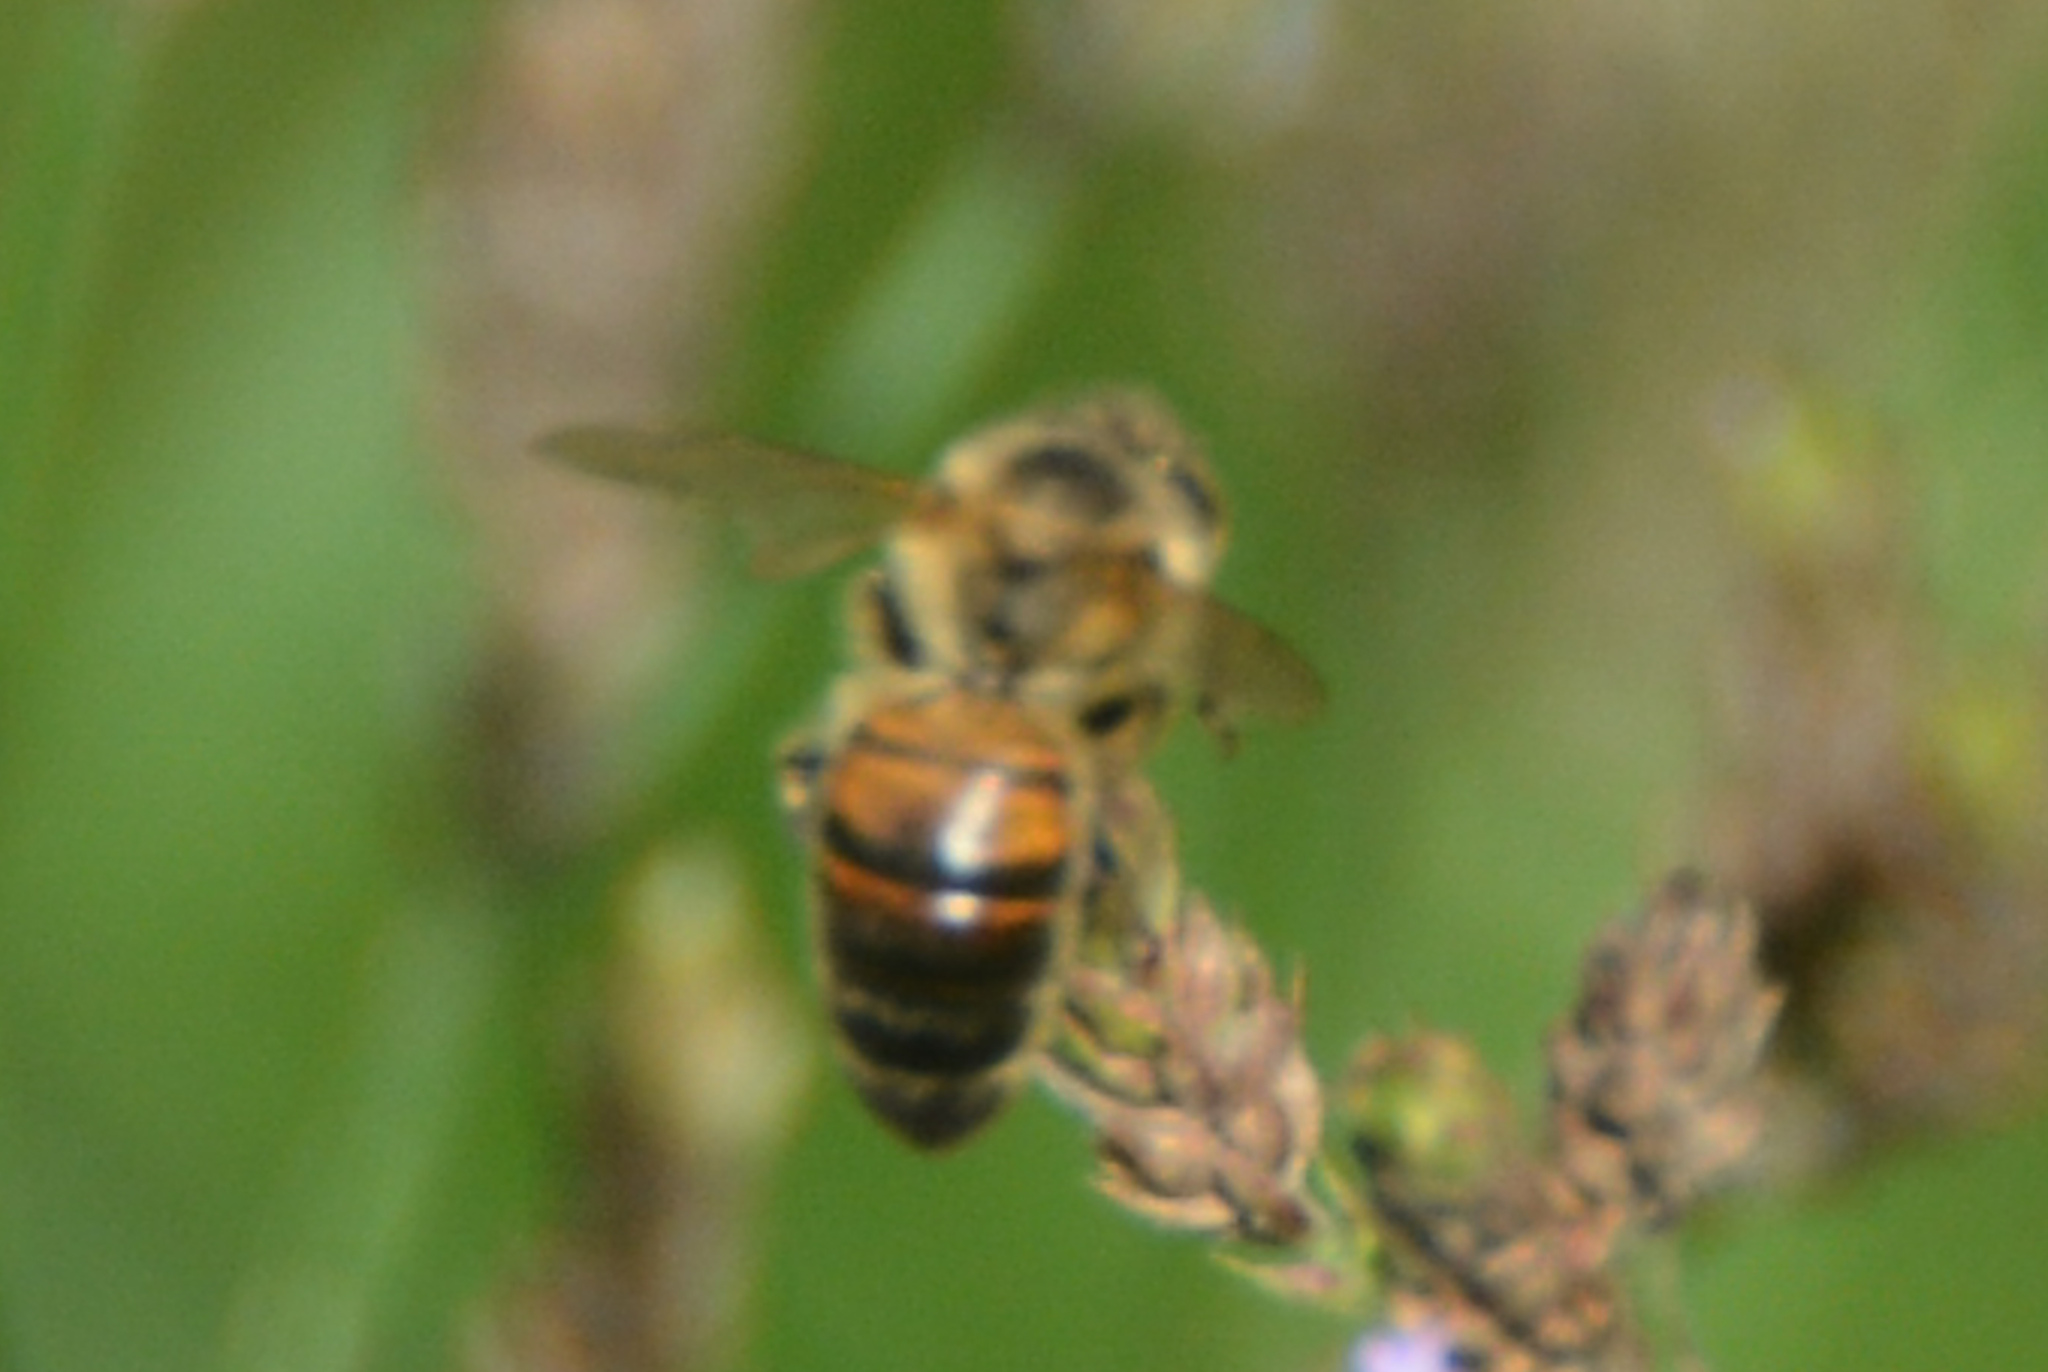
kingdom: Animalia
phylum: Arthropoda
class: Insecta
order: Hymenoptera
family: Apidae
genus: Apis
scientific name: Apis mellifera
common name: Honey bee
